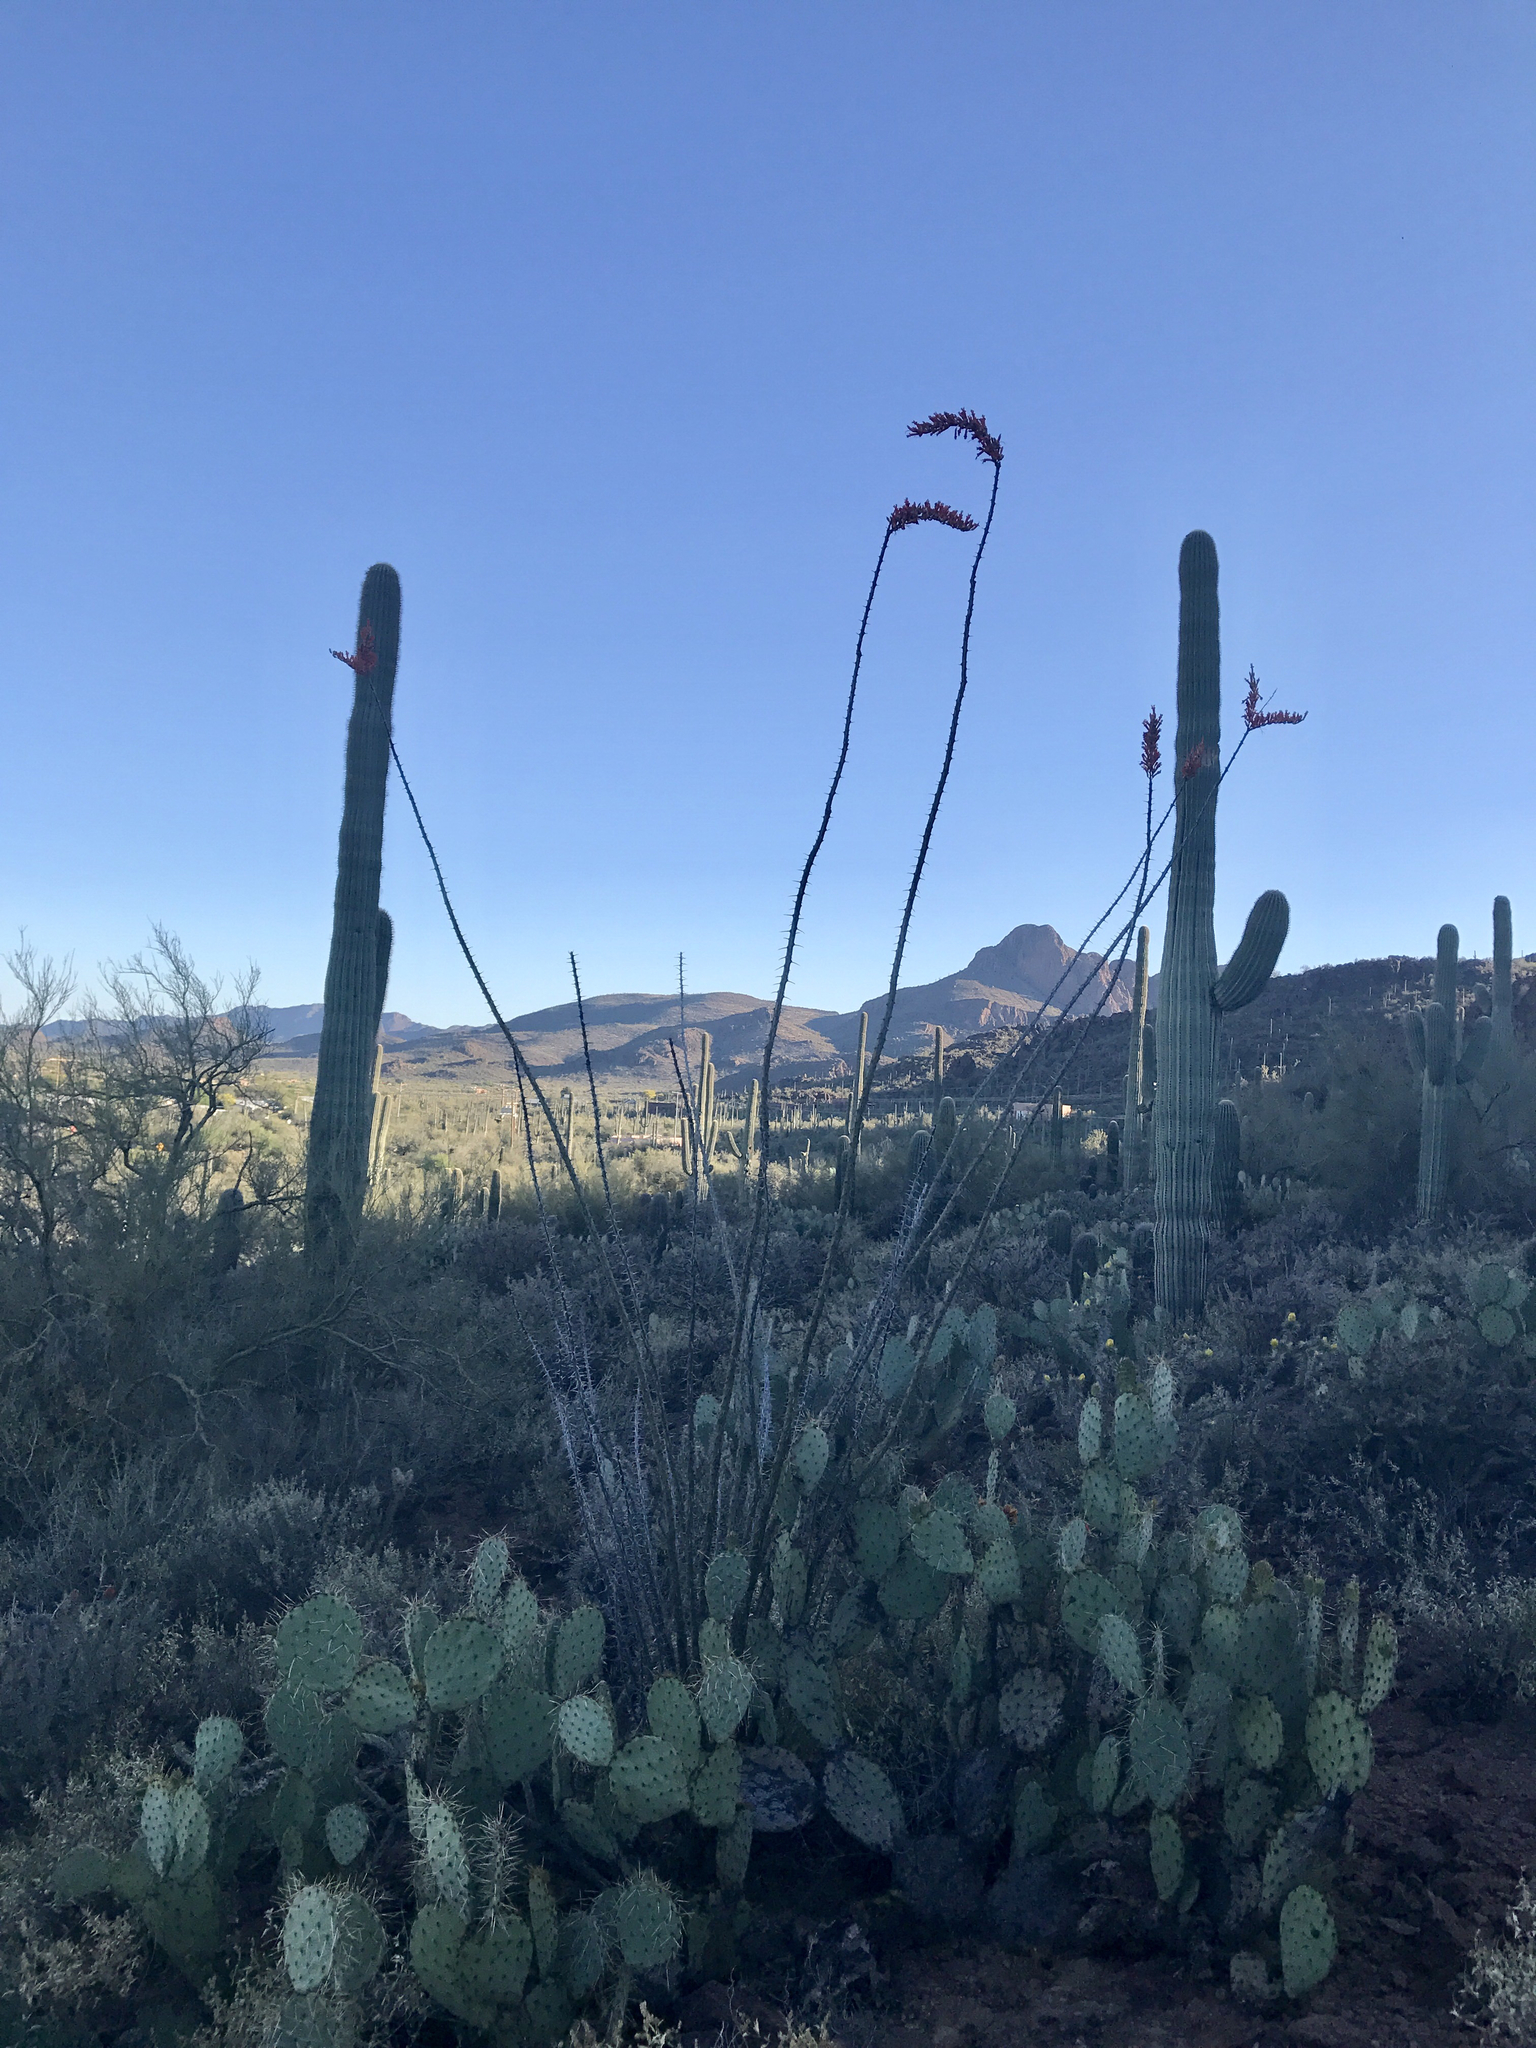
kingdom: Plantae
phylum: Tracheophyta
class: Magnoliopsida
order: Ericales
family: Fouquieriaceae
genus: Fouquieria
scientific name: Fouquieria splendens
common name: Vine-cactus
